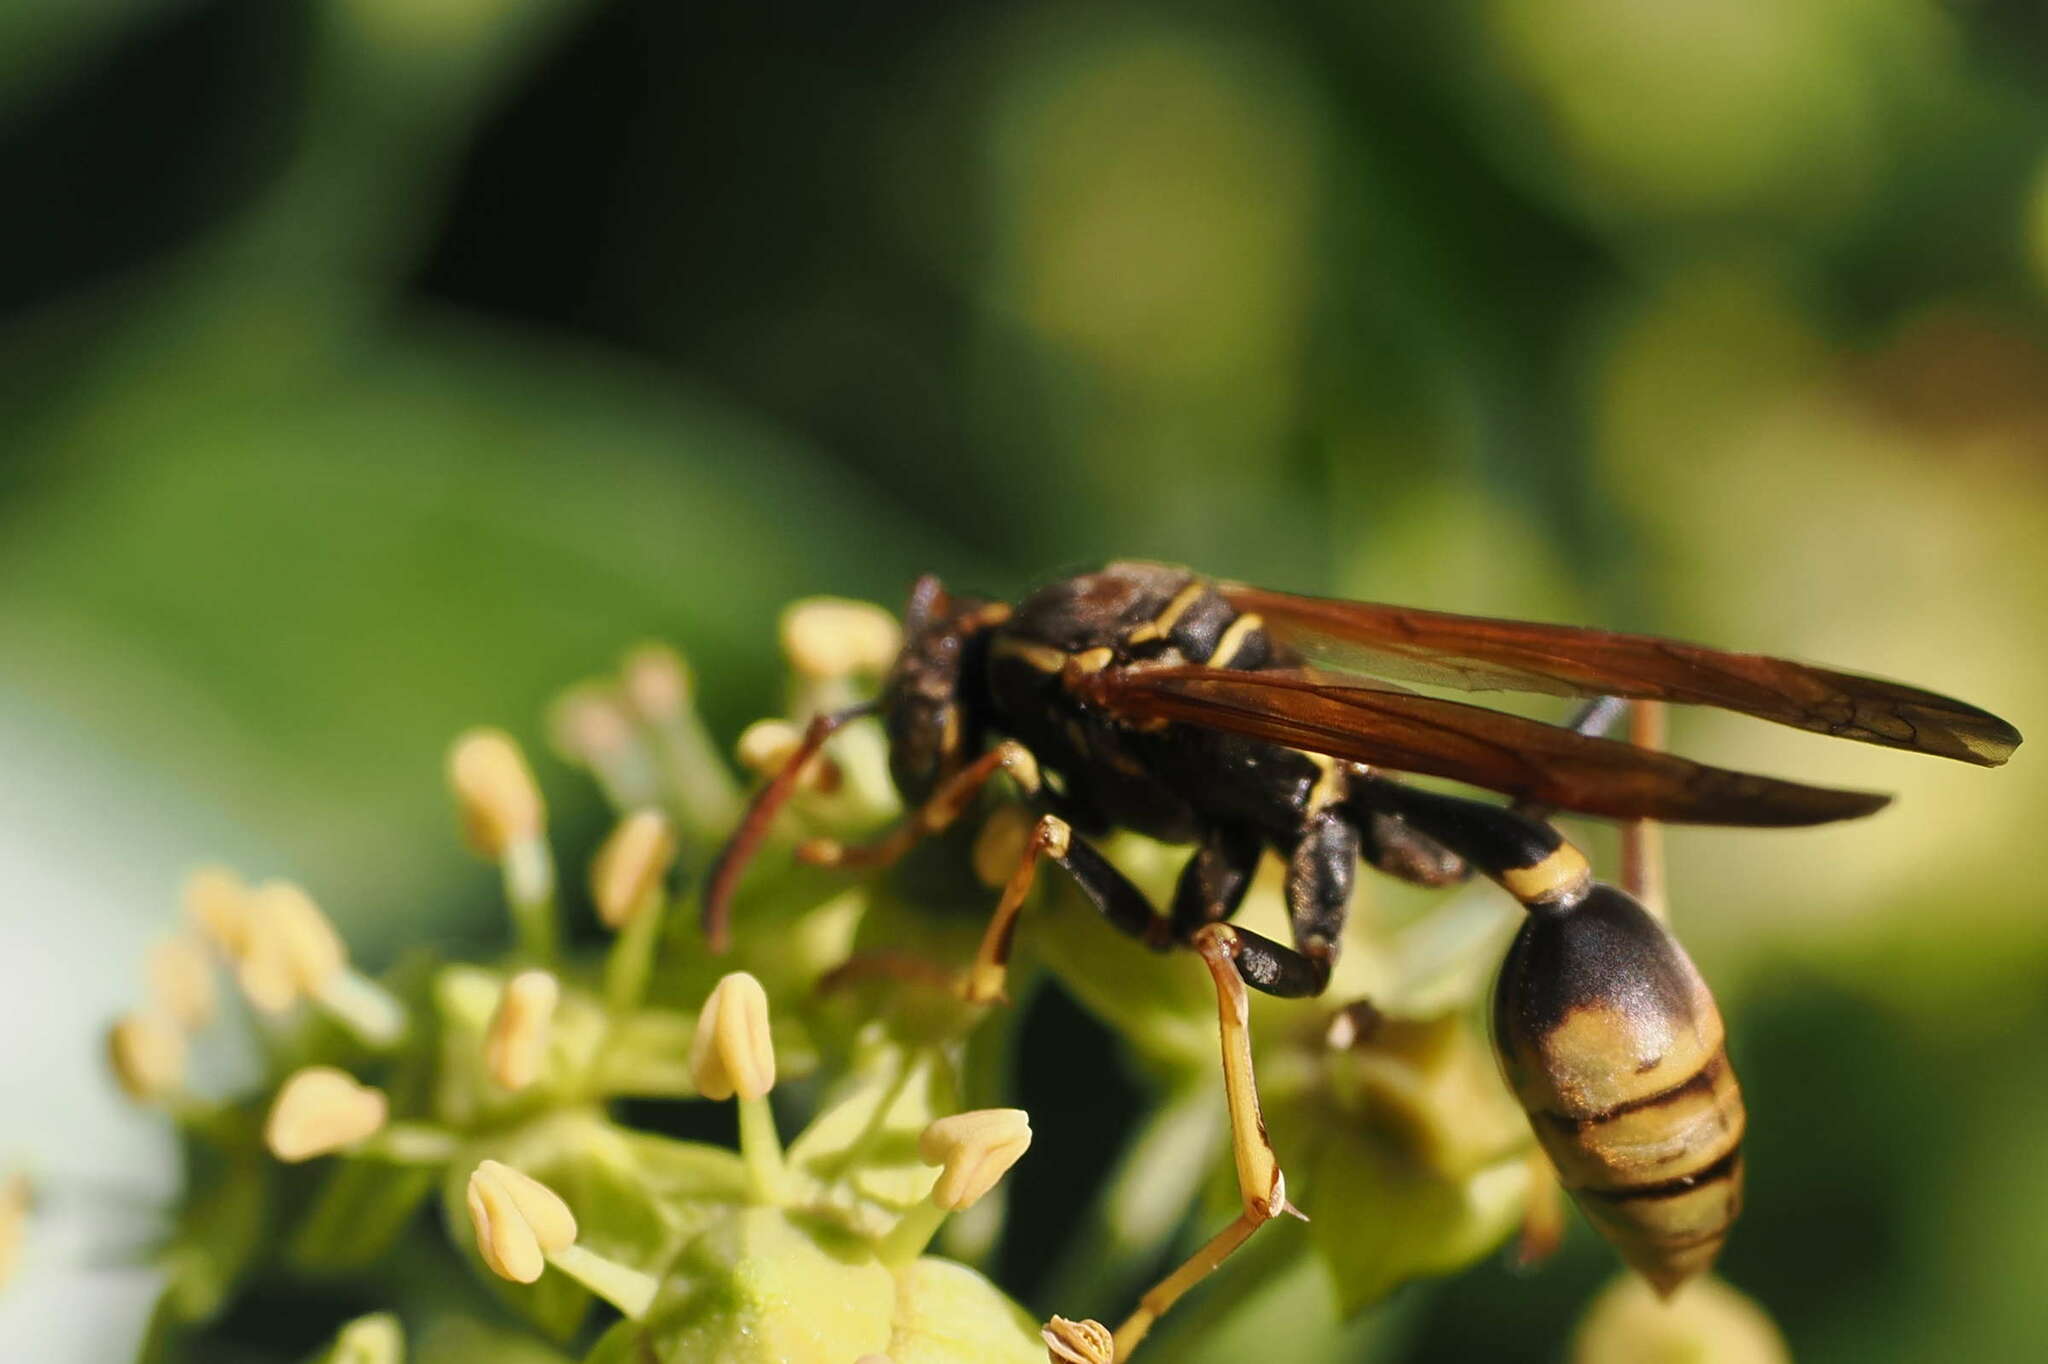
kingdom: Animalia
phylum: Arthropoda
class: Insecta
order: Hymenoptera
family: Vespidae
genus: Mischocyttarus
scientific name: Mischocyttarus flavitarsis
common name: Wasp
